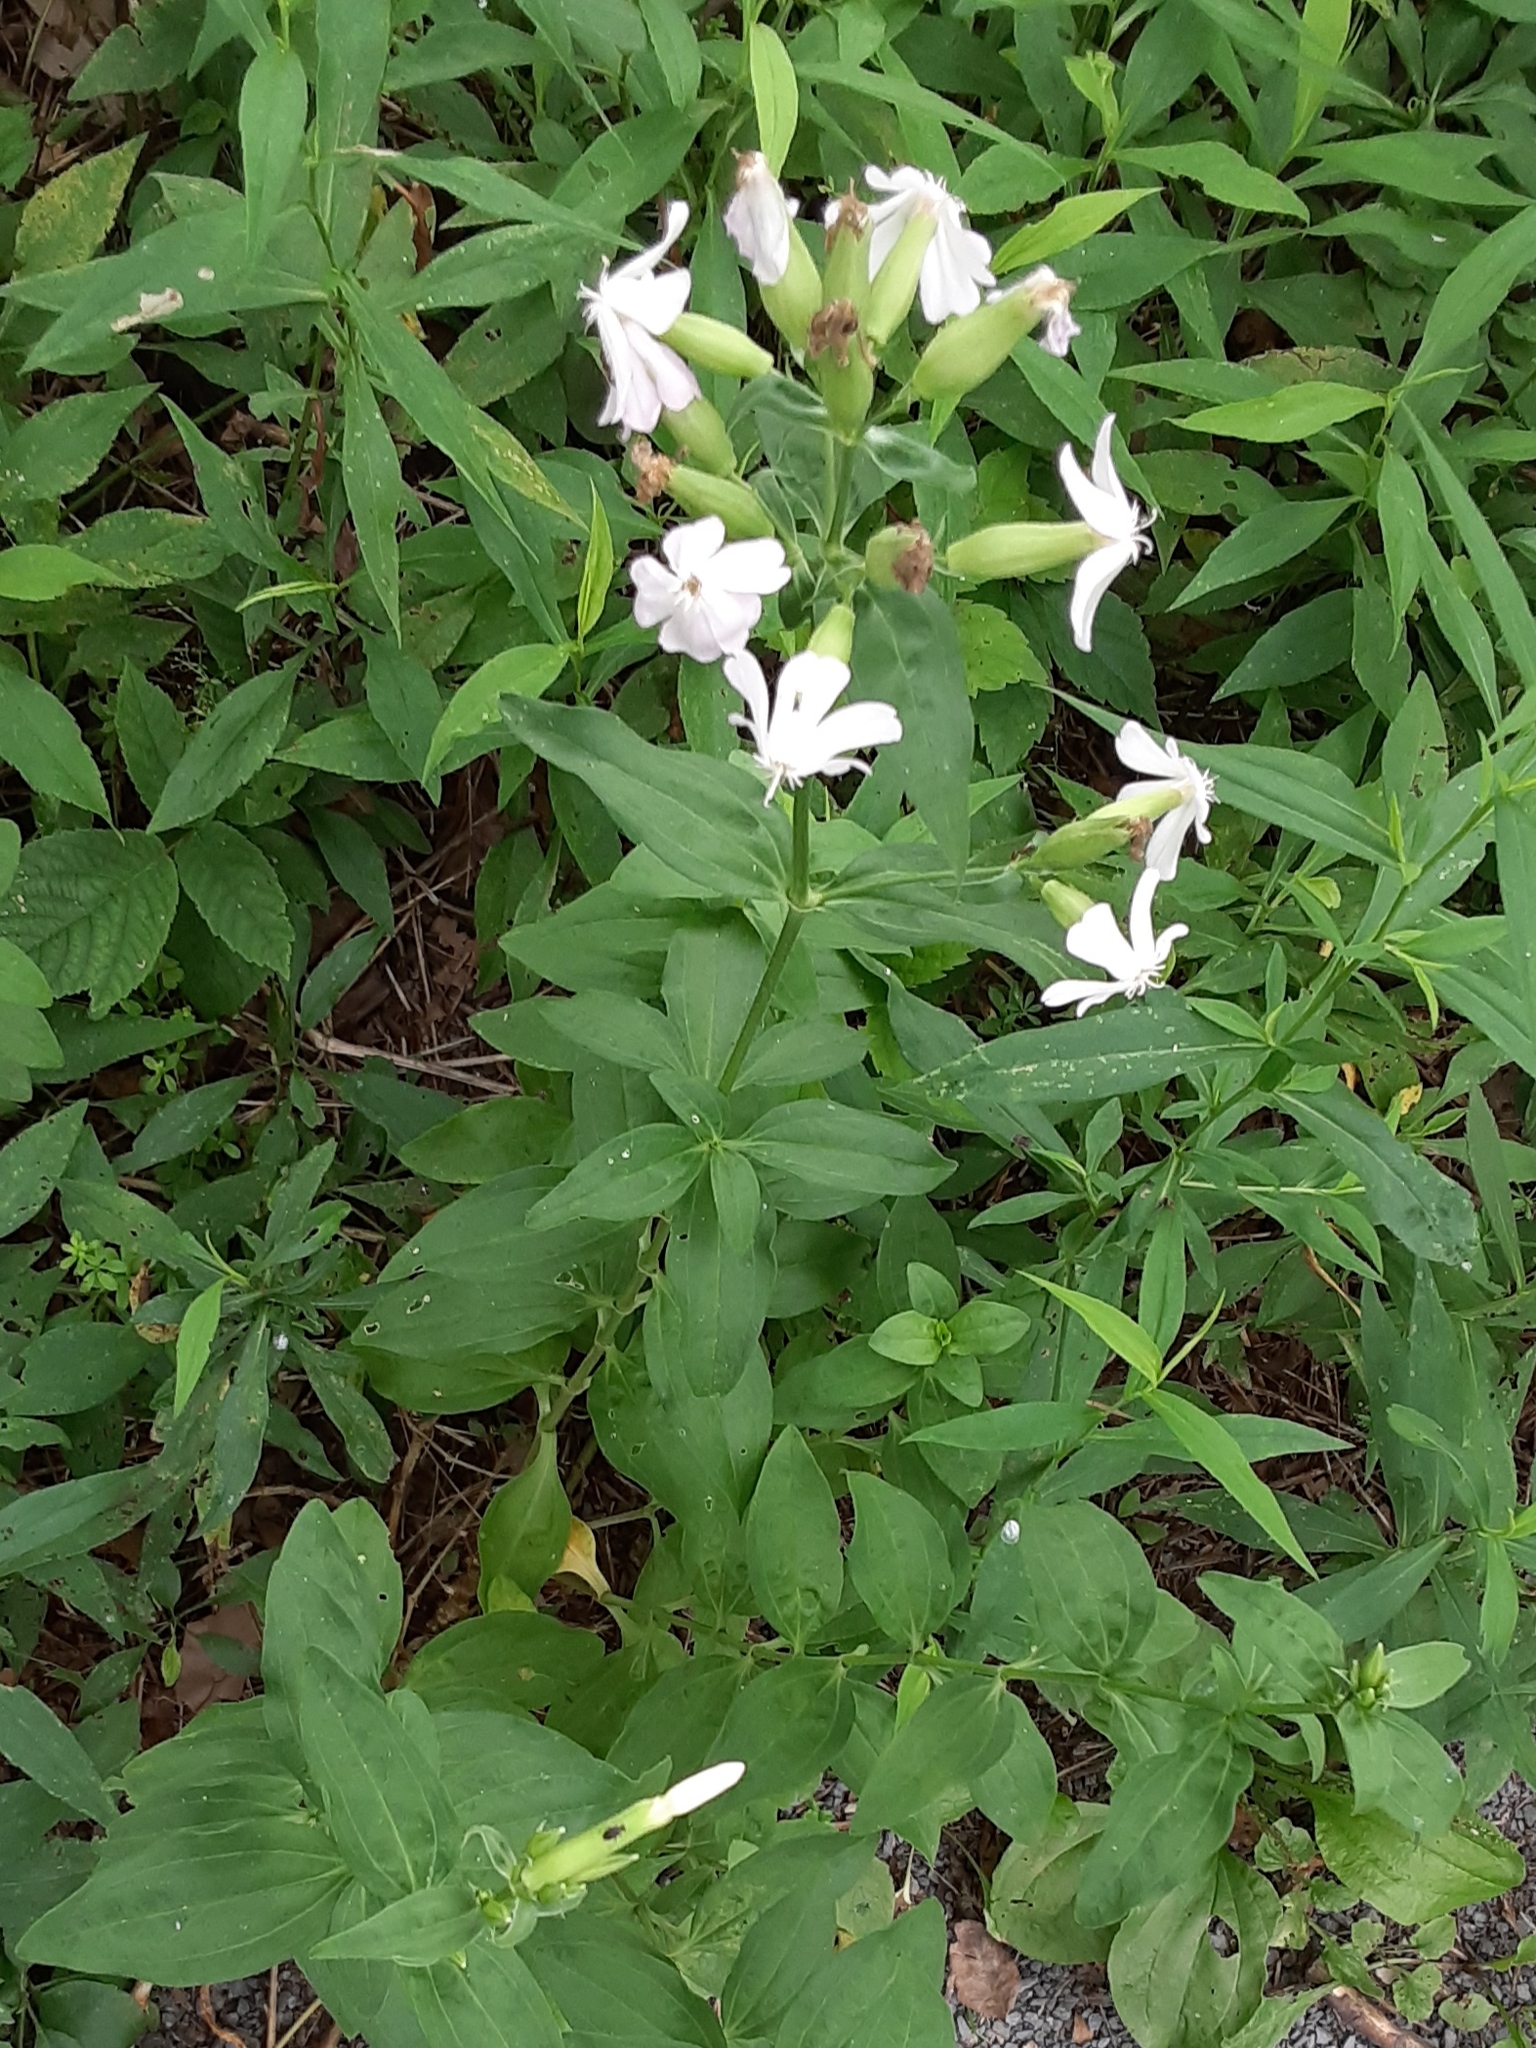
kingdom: Plantae
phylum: Tracheophyta
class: Magnoliopsida
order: Caryophyllales
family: Caryophyllaceae
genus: Saponaria
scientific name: Saponaria officinalis
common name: Soapwort
